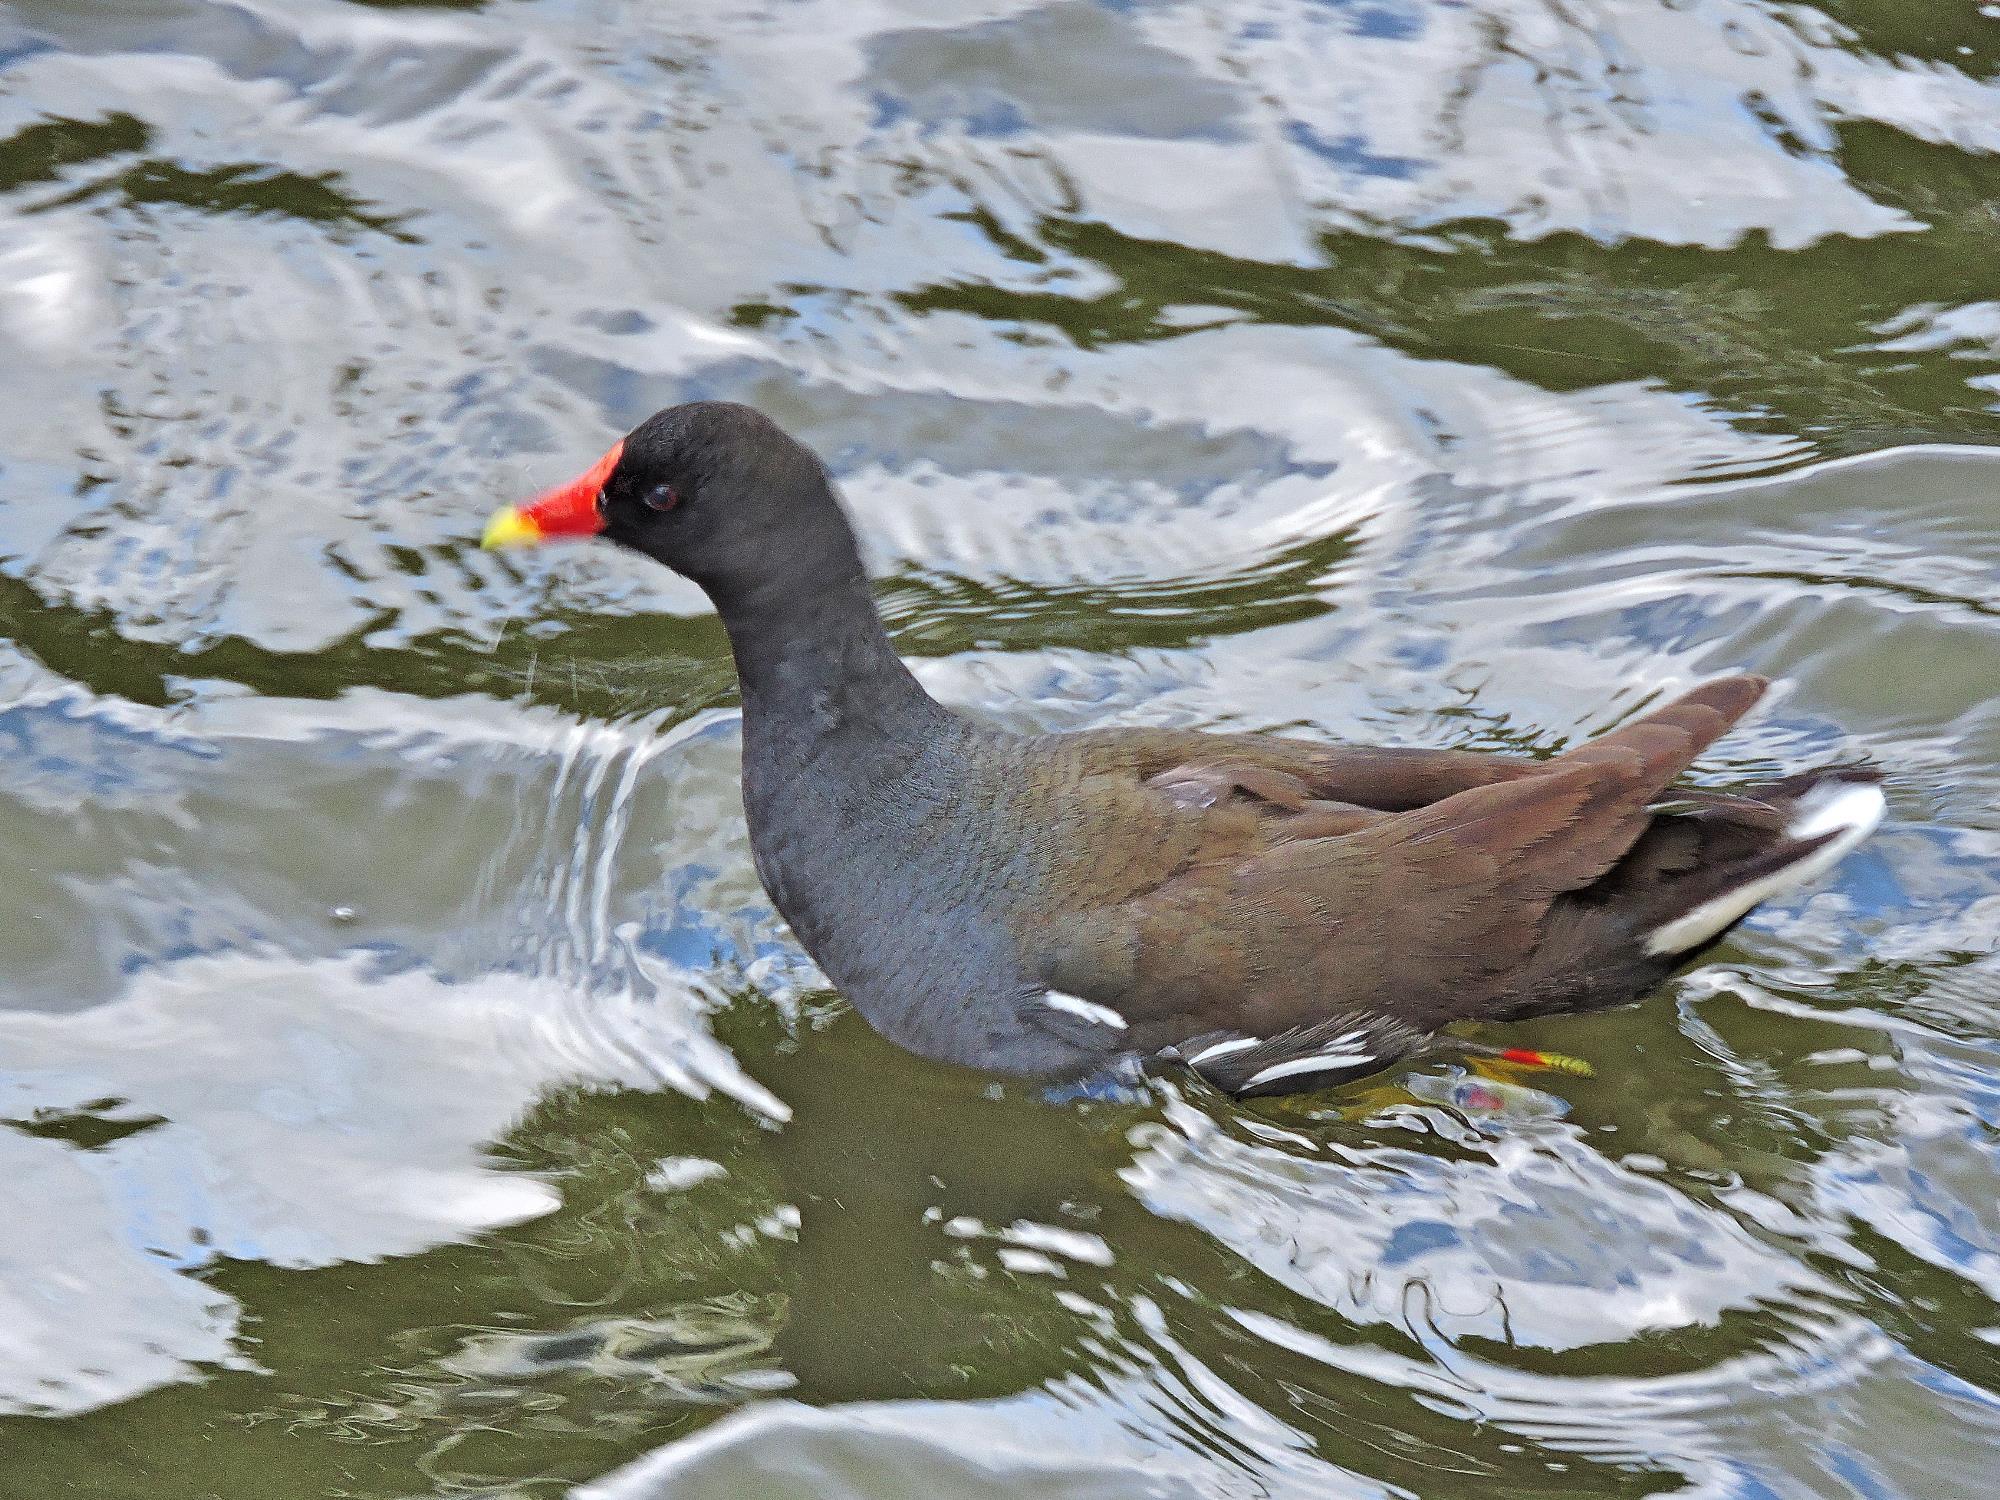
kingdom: Animalia
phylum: Chordata
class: Aves
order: Gruiformes
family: Rallidae
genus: Gallinula
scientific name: Gallinula chloropus
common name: Common moorhen
